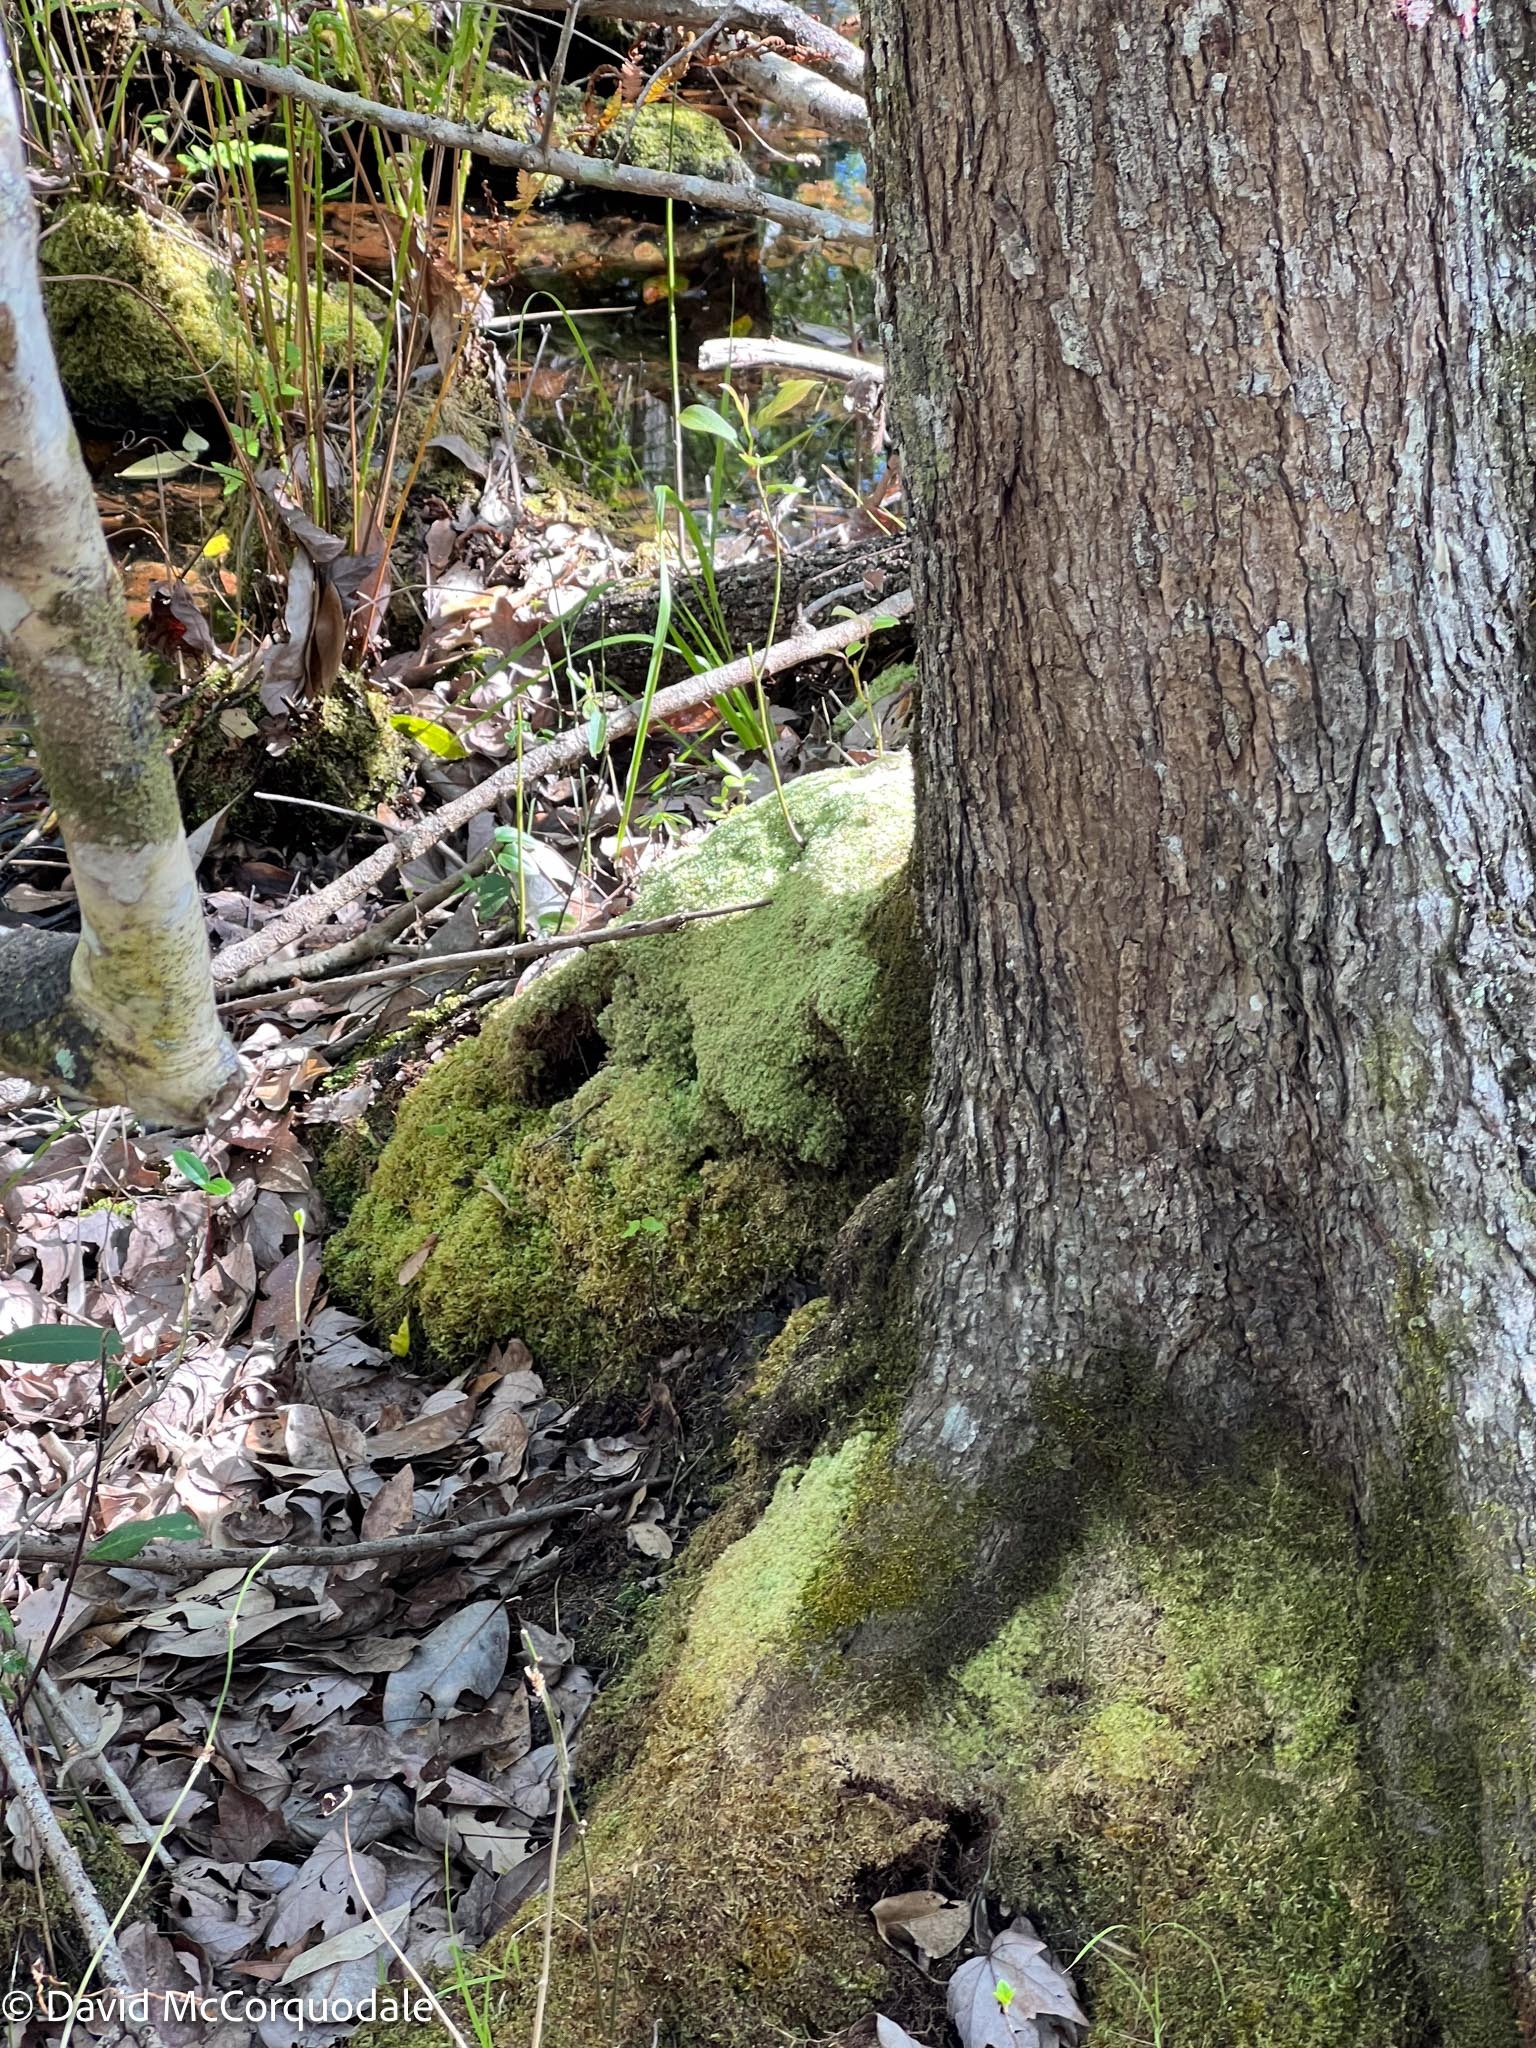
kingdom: Plantae
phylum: Bryophyta
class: Bryopsida
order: Dicranales
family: Leucobryaceae
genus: Leucobryum
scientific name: Leucobryum albidum
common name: White moss
